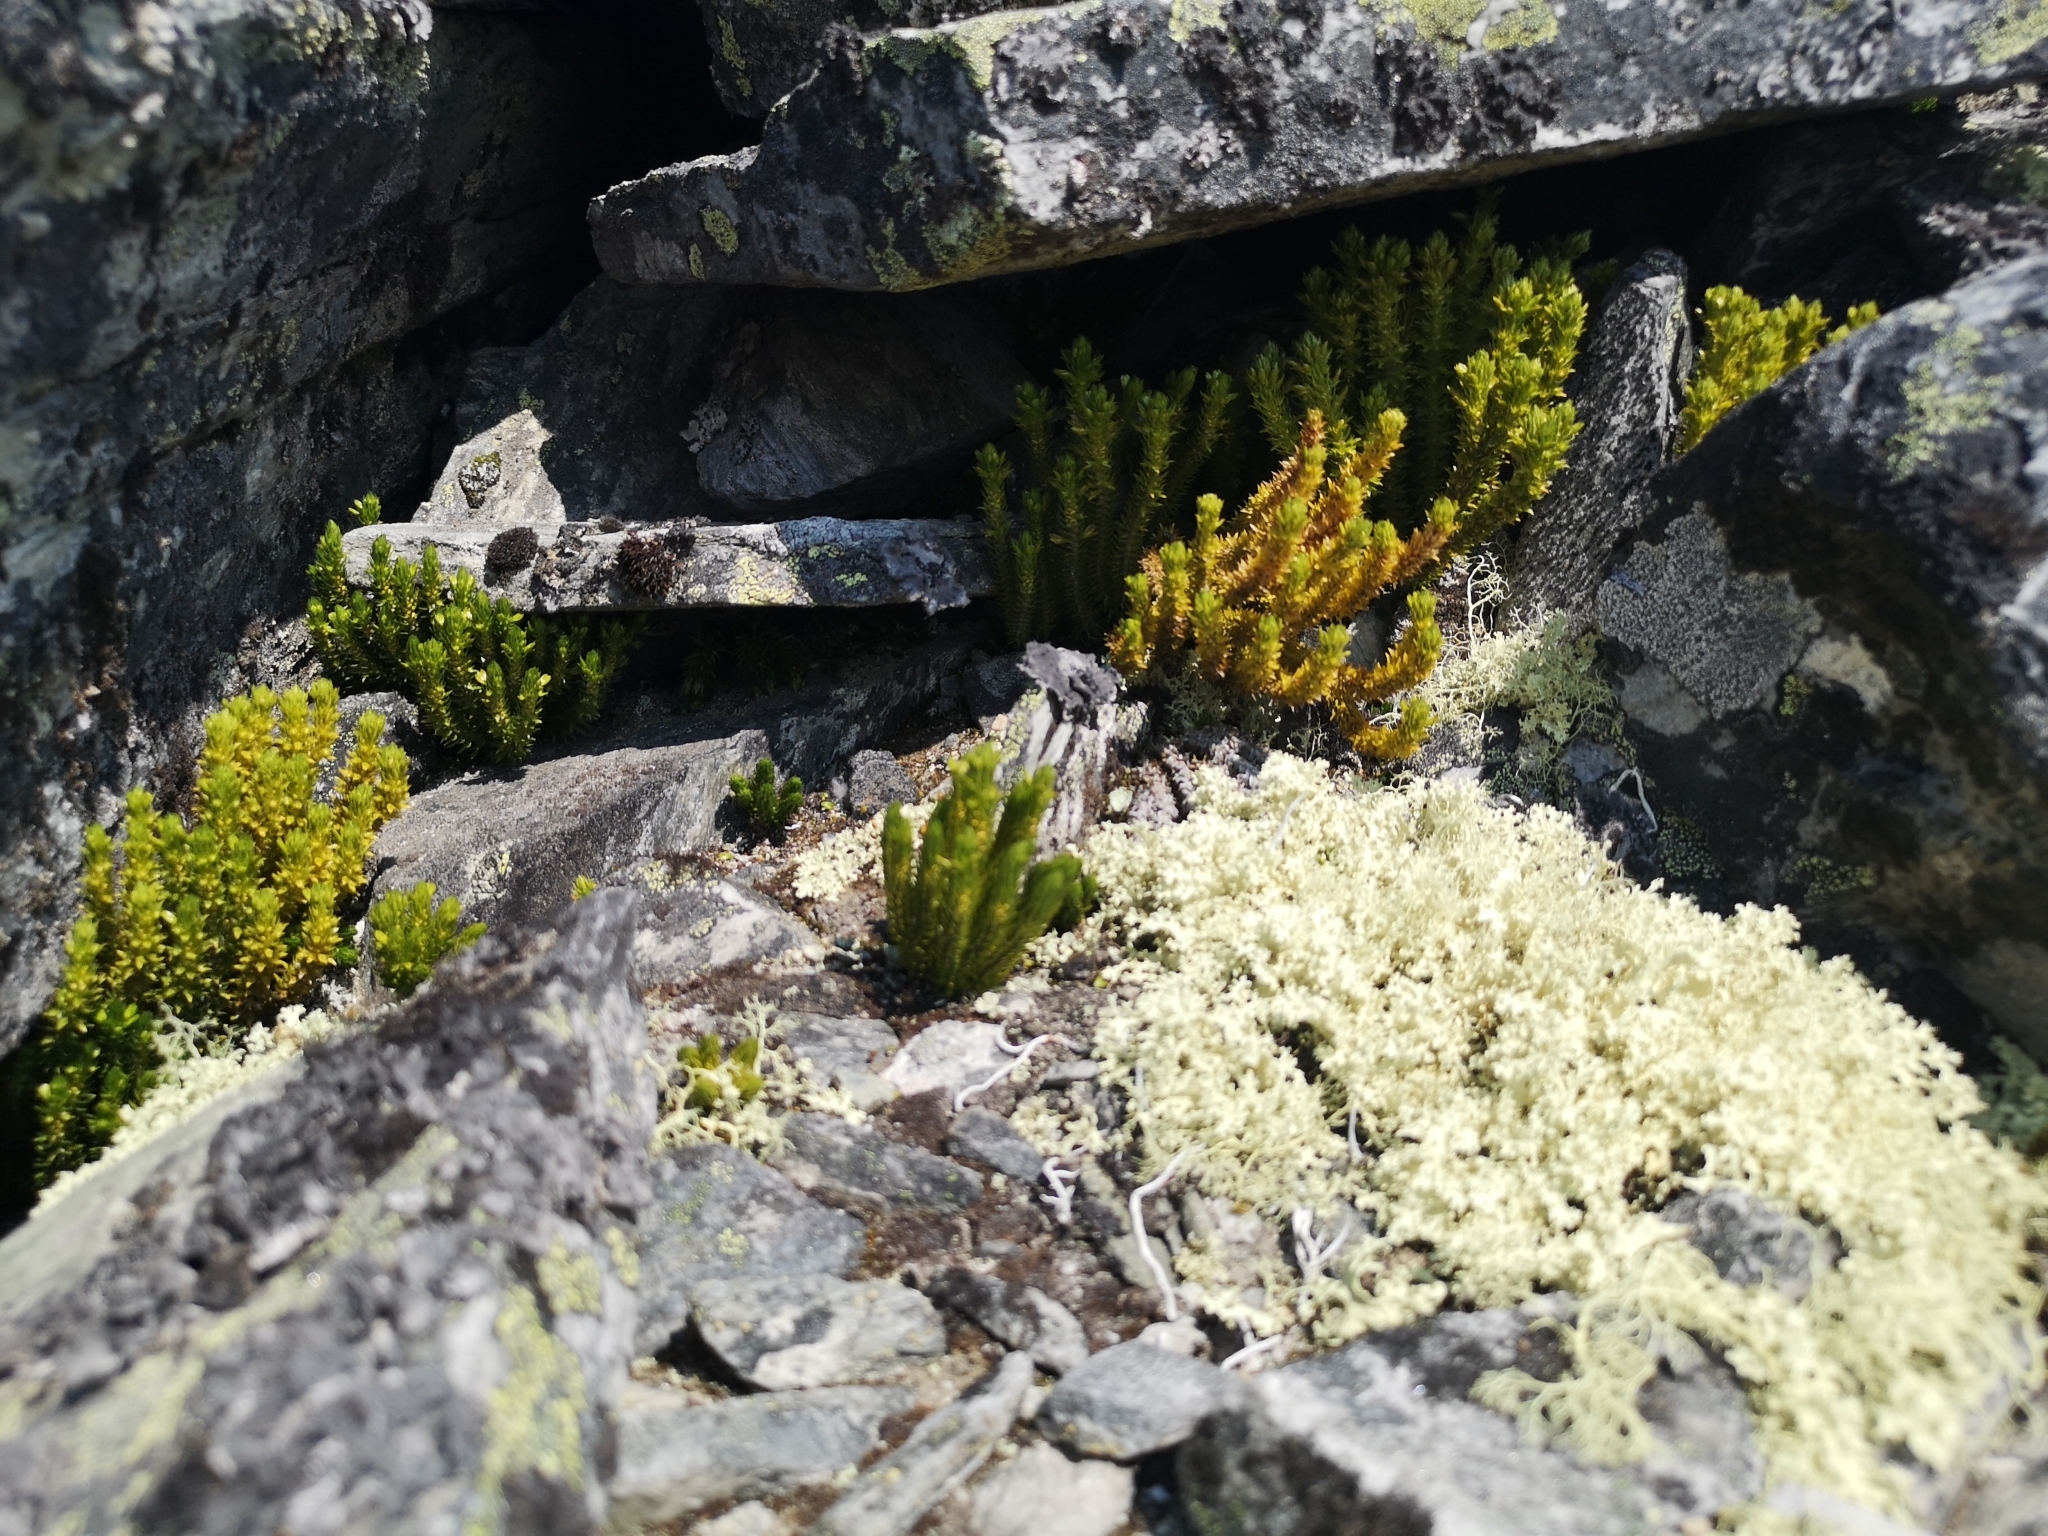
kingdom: Plantae
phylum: Tracheophyta
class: Lycopodiopsida
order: Lycopodiales
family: Lycopodiaceae
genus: Huperzia
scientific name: Huperzia selago
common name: Northern firmoss
